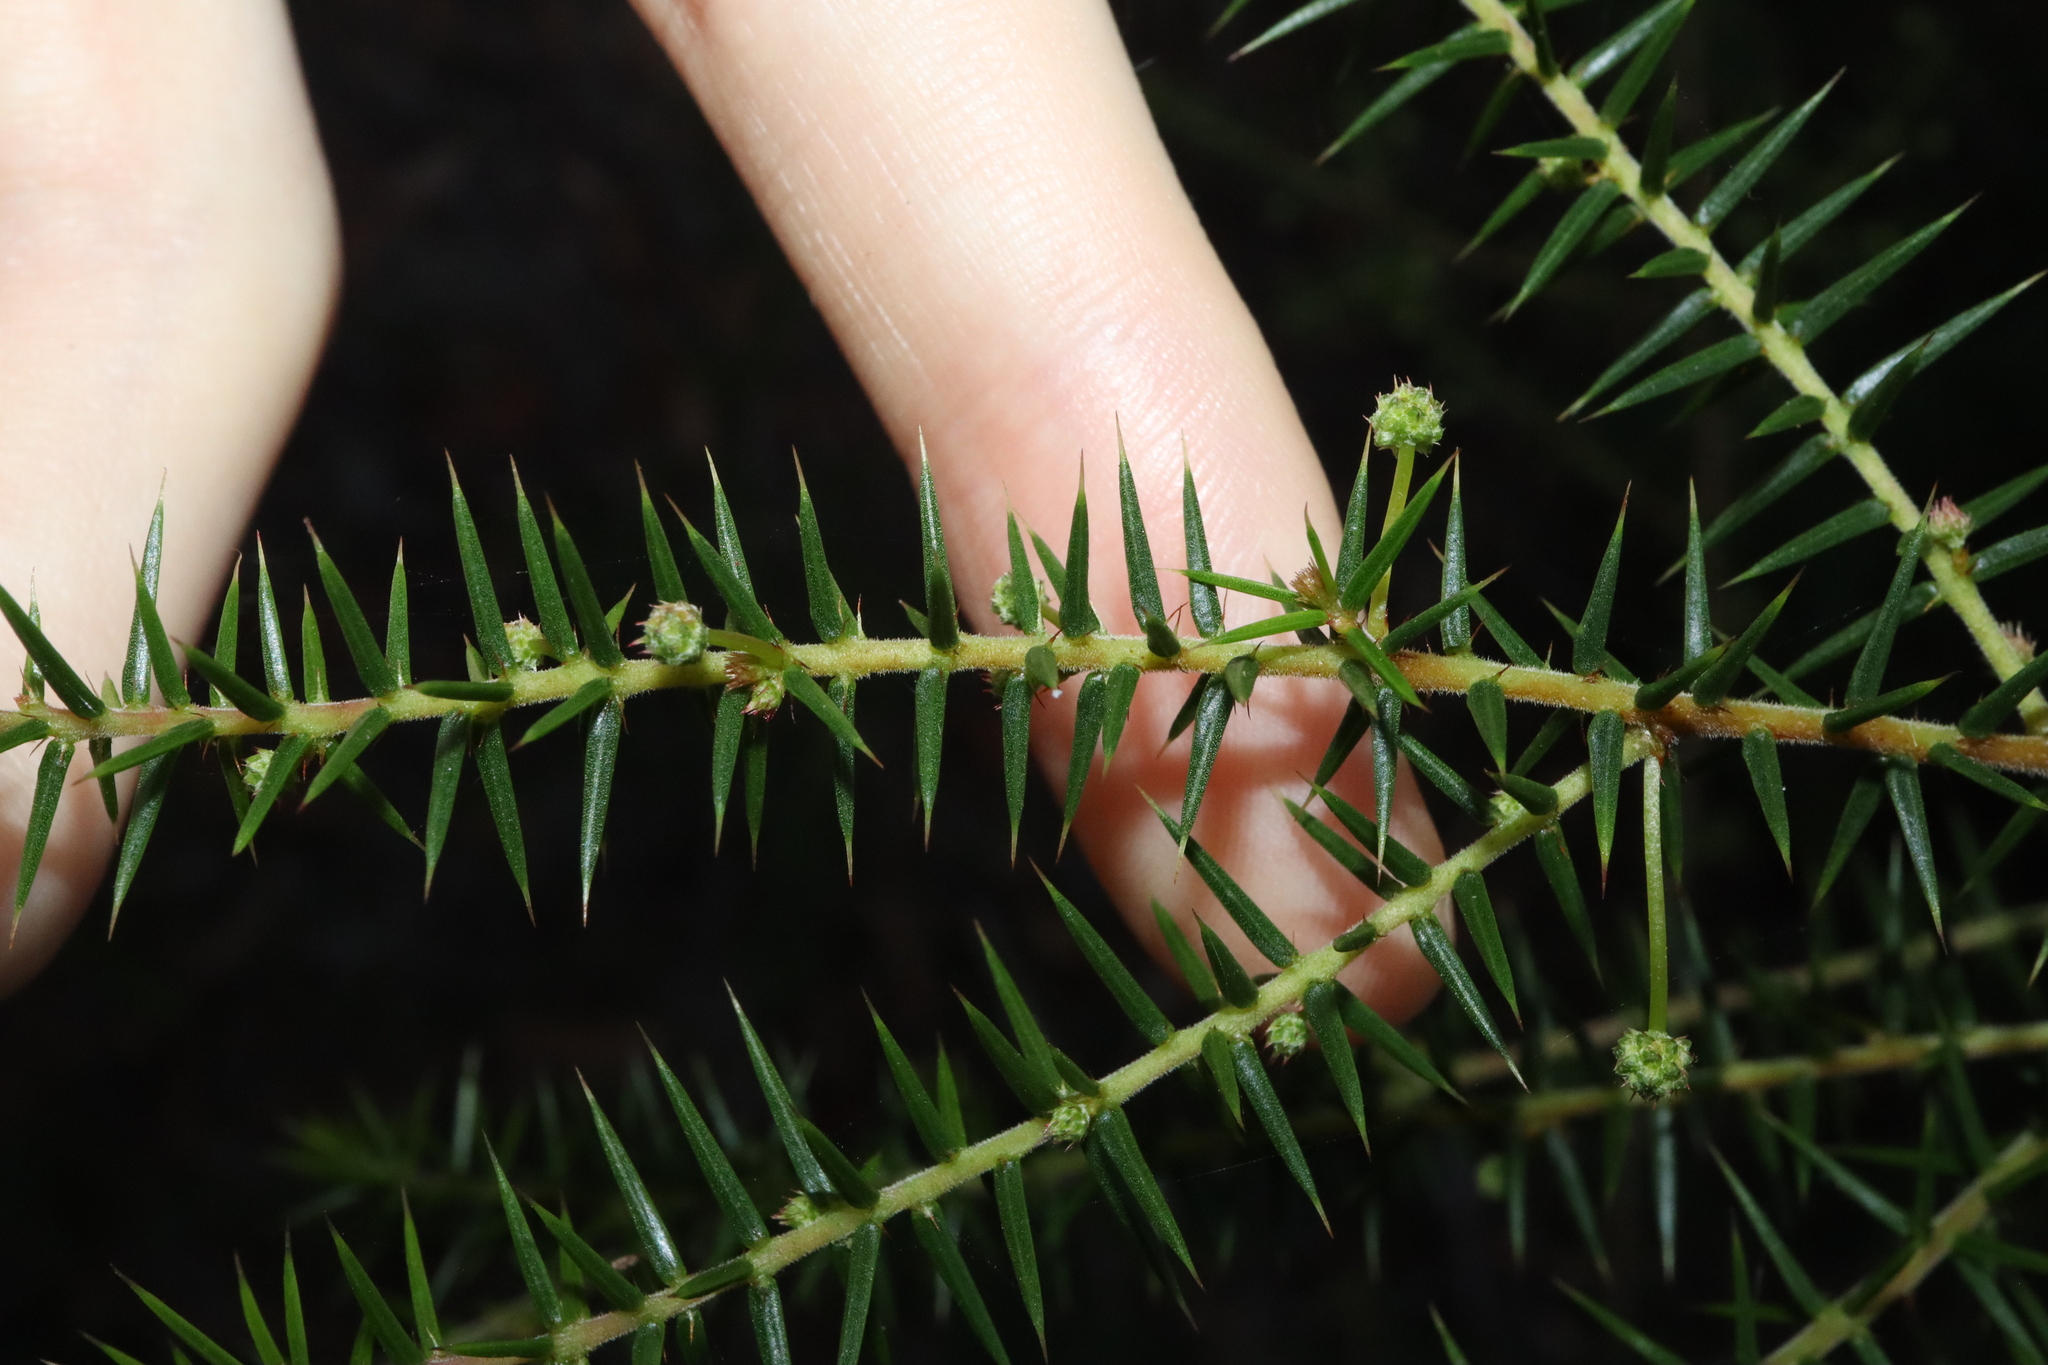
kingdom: Plantae
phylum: Tracheophyta
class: Magnoliopsida
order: Fabales
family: Fabaceae
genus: Acacia
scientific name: Acacia ulicifolia
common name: Juniper wattle
